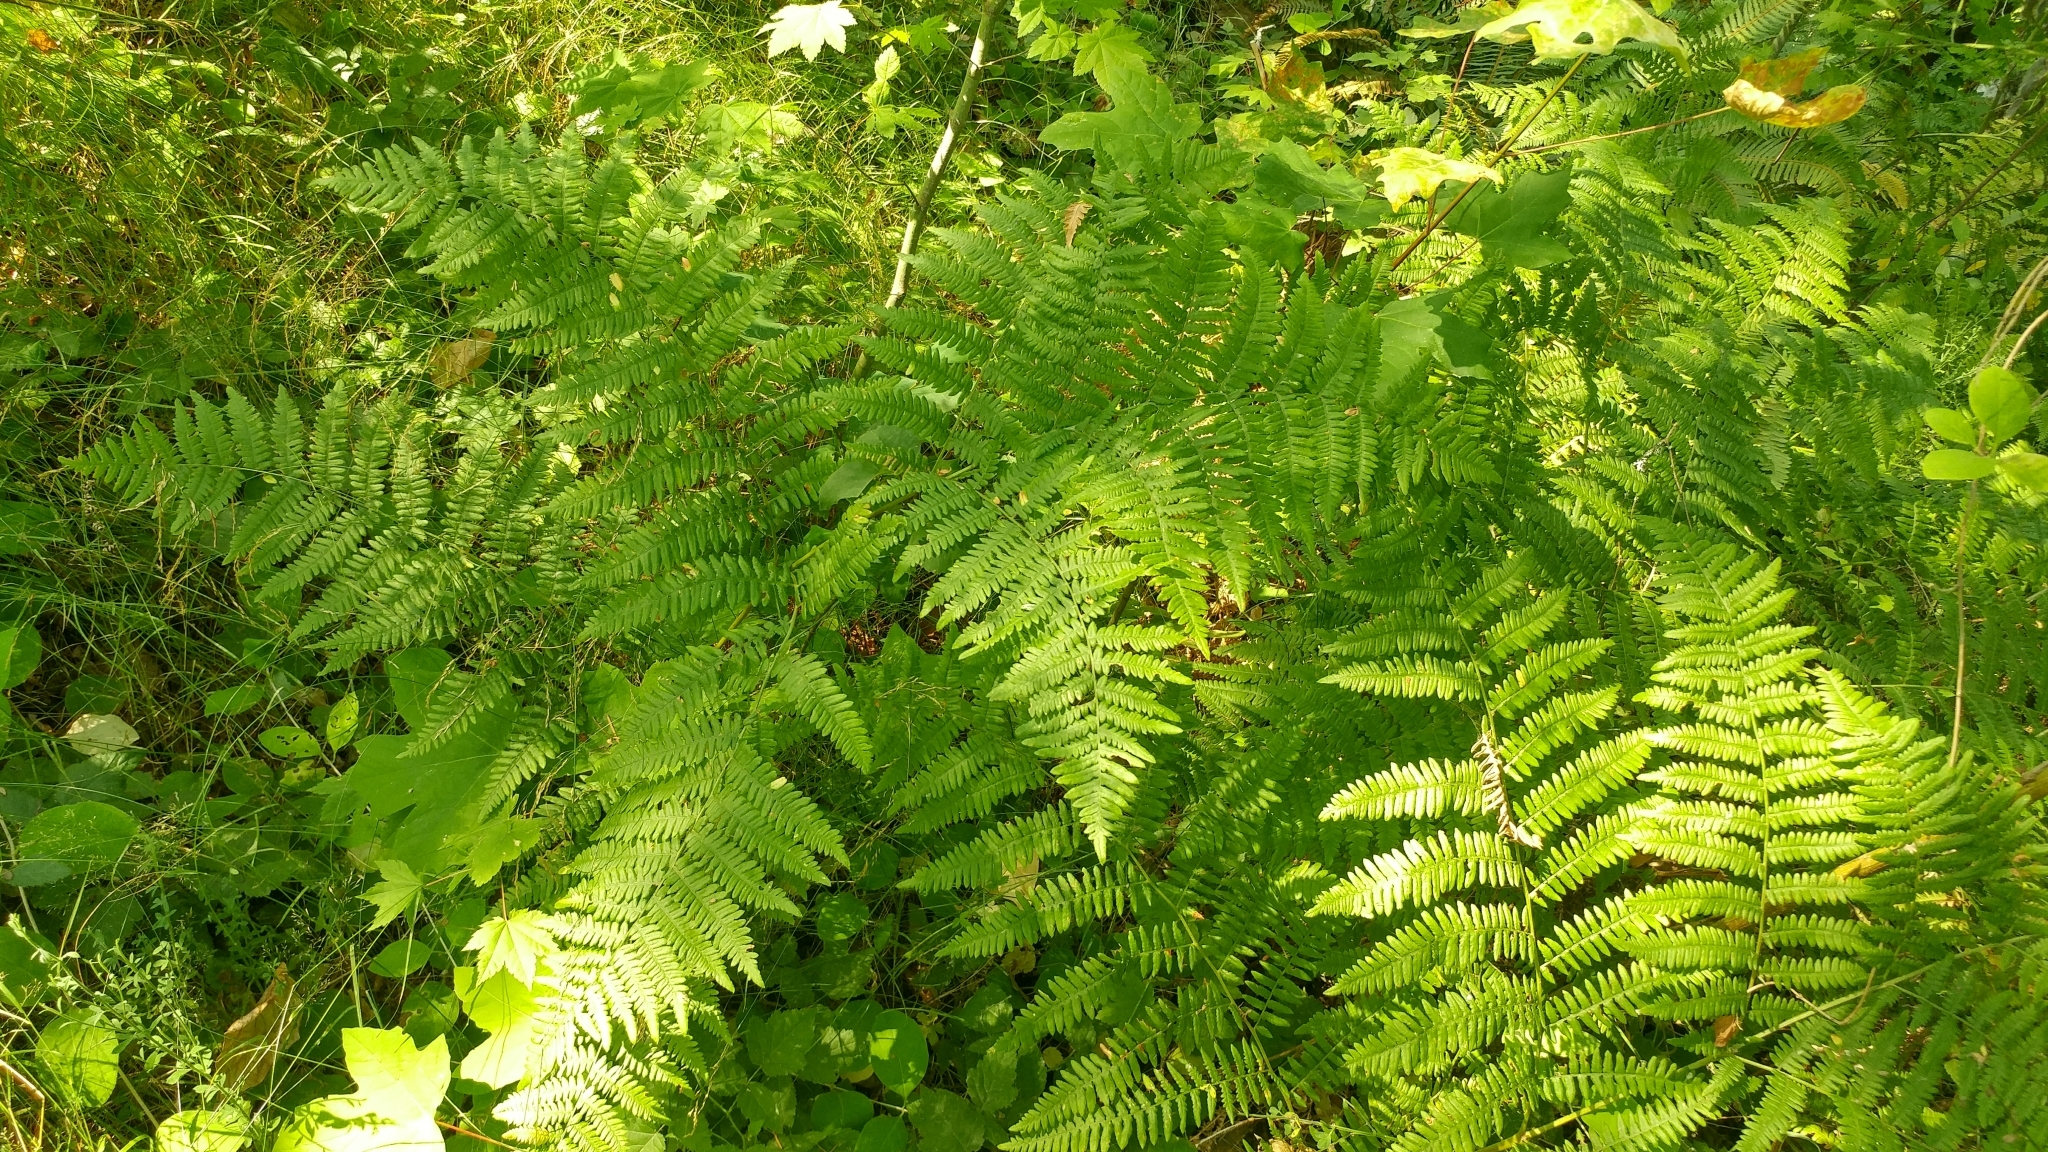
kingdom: Plantae
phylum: Tracheophyta
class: Polypodiopsida
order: Polypodiales
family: Dennstaedtiaceae
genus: Pteridium
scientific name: Pteridium aquilinum
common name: Bracken
